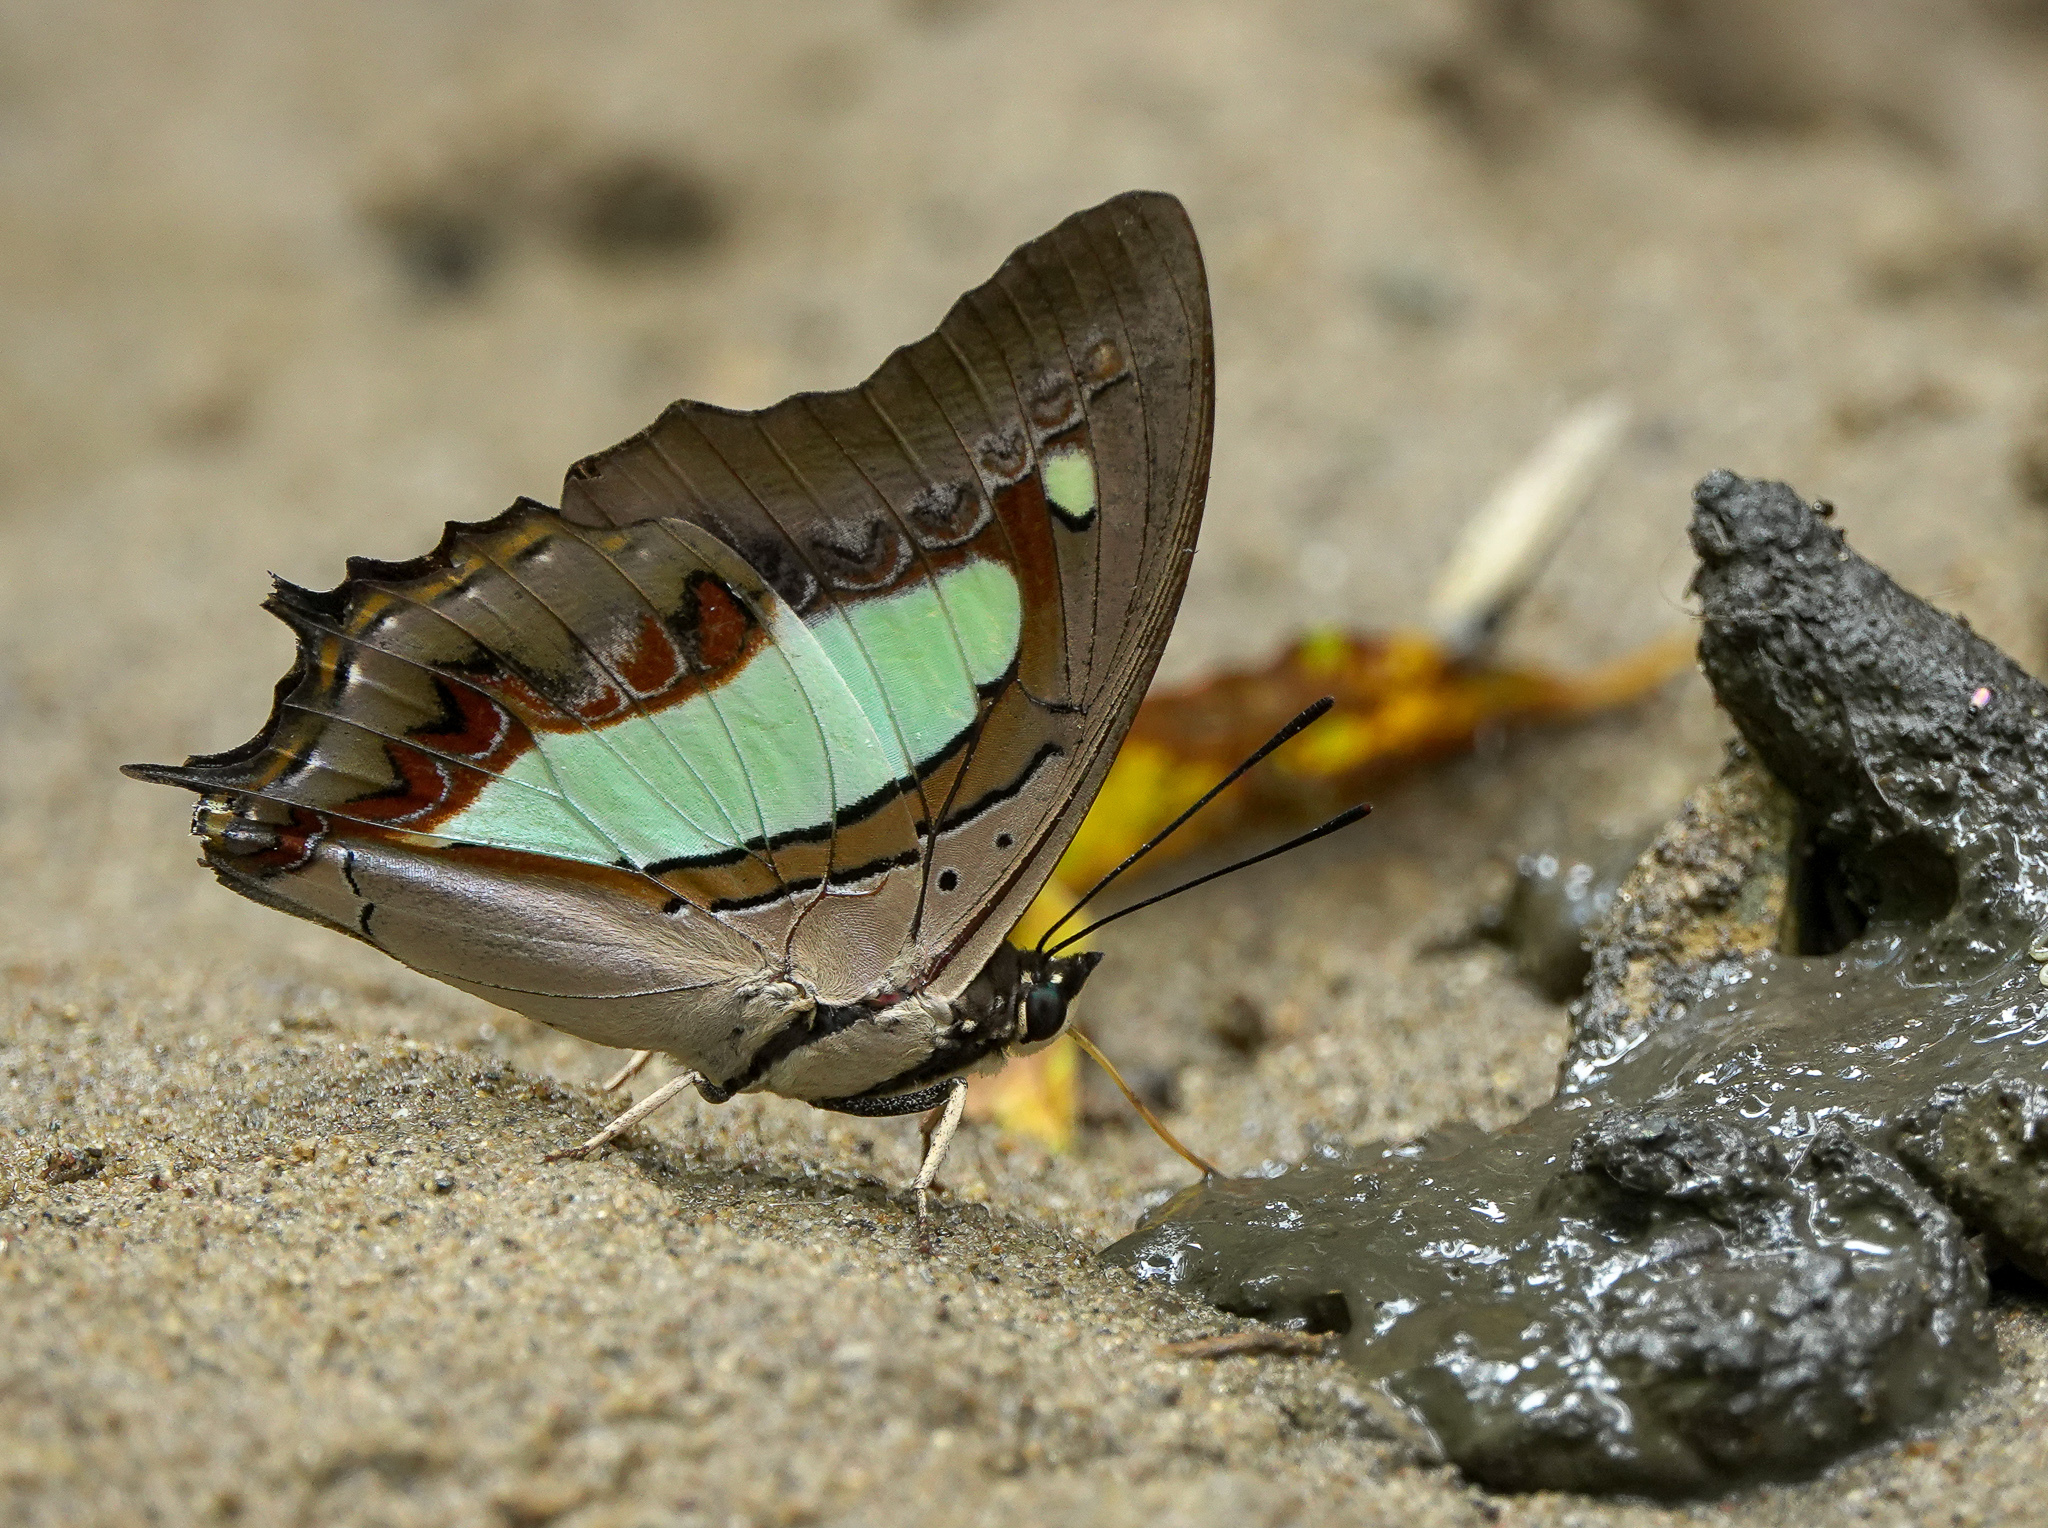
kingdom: Animalia
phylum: Arthropoda
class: Insecta
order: Lepidoptera
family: Nymphalidae
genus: Polyura
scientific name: Polyura
